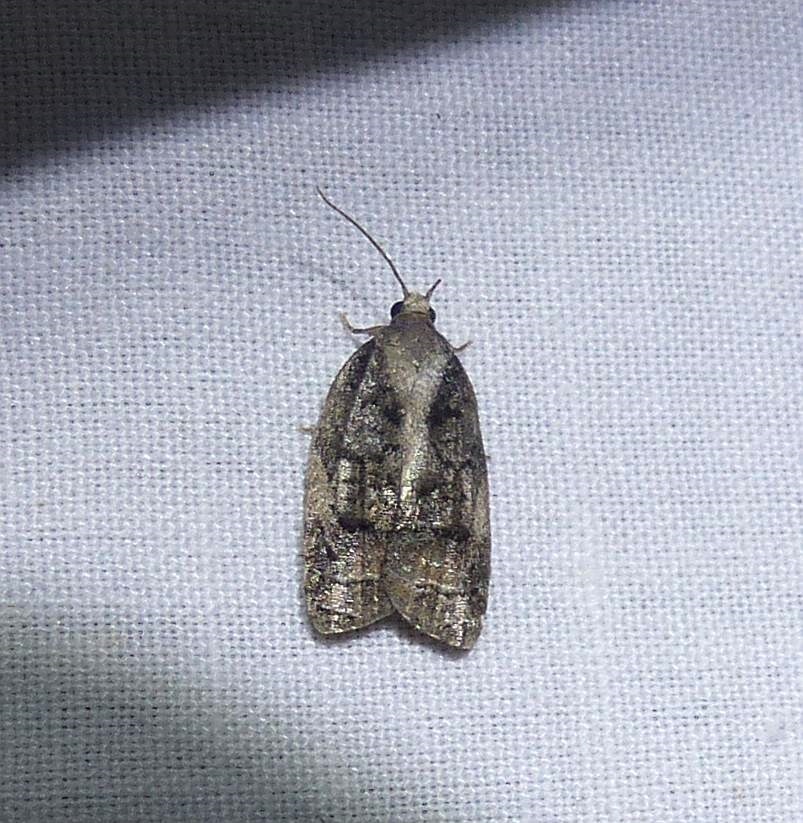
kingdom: Animalia
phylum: Arthropoda
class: Insecta
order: Lepidoptera
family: Tortricidae
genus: Platynota
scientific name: Platynota idaeusalis
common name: Tufted apple bud moth
